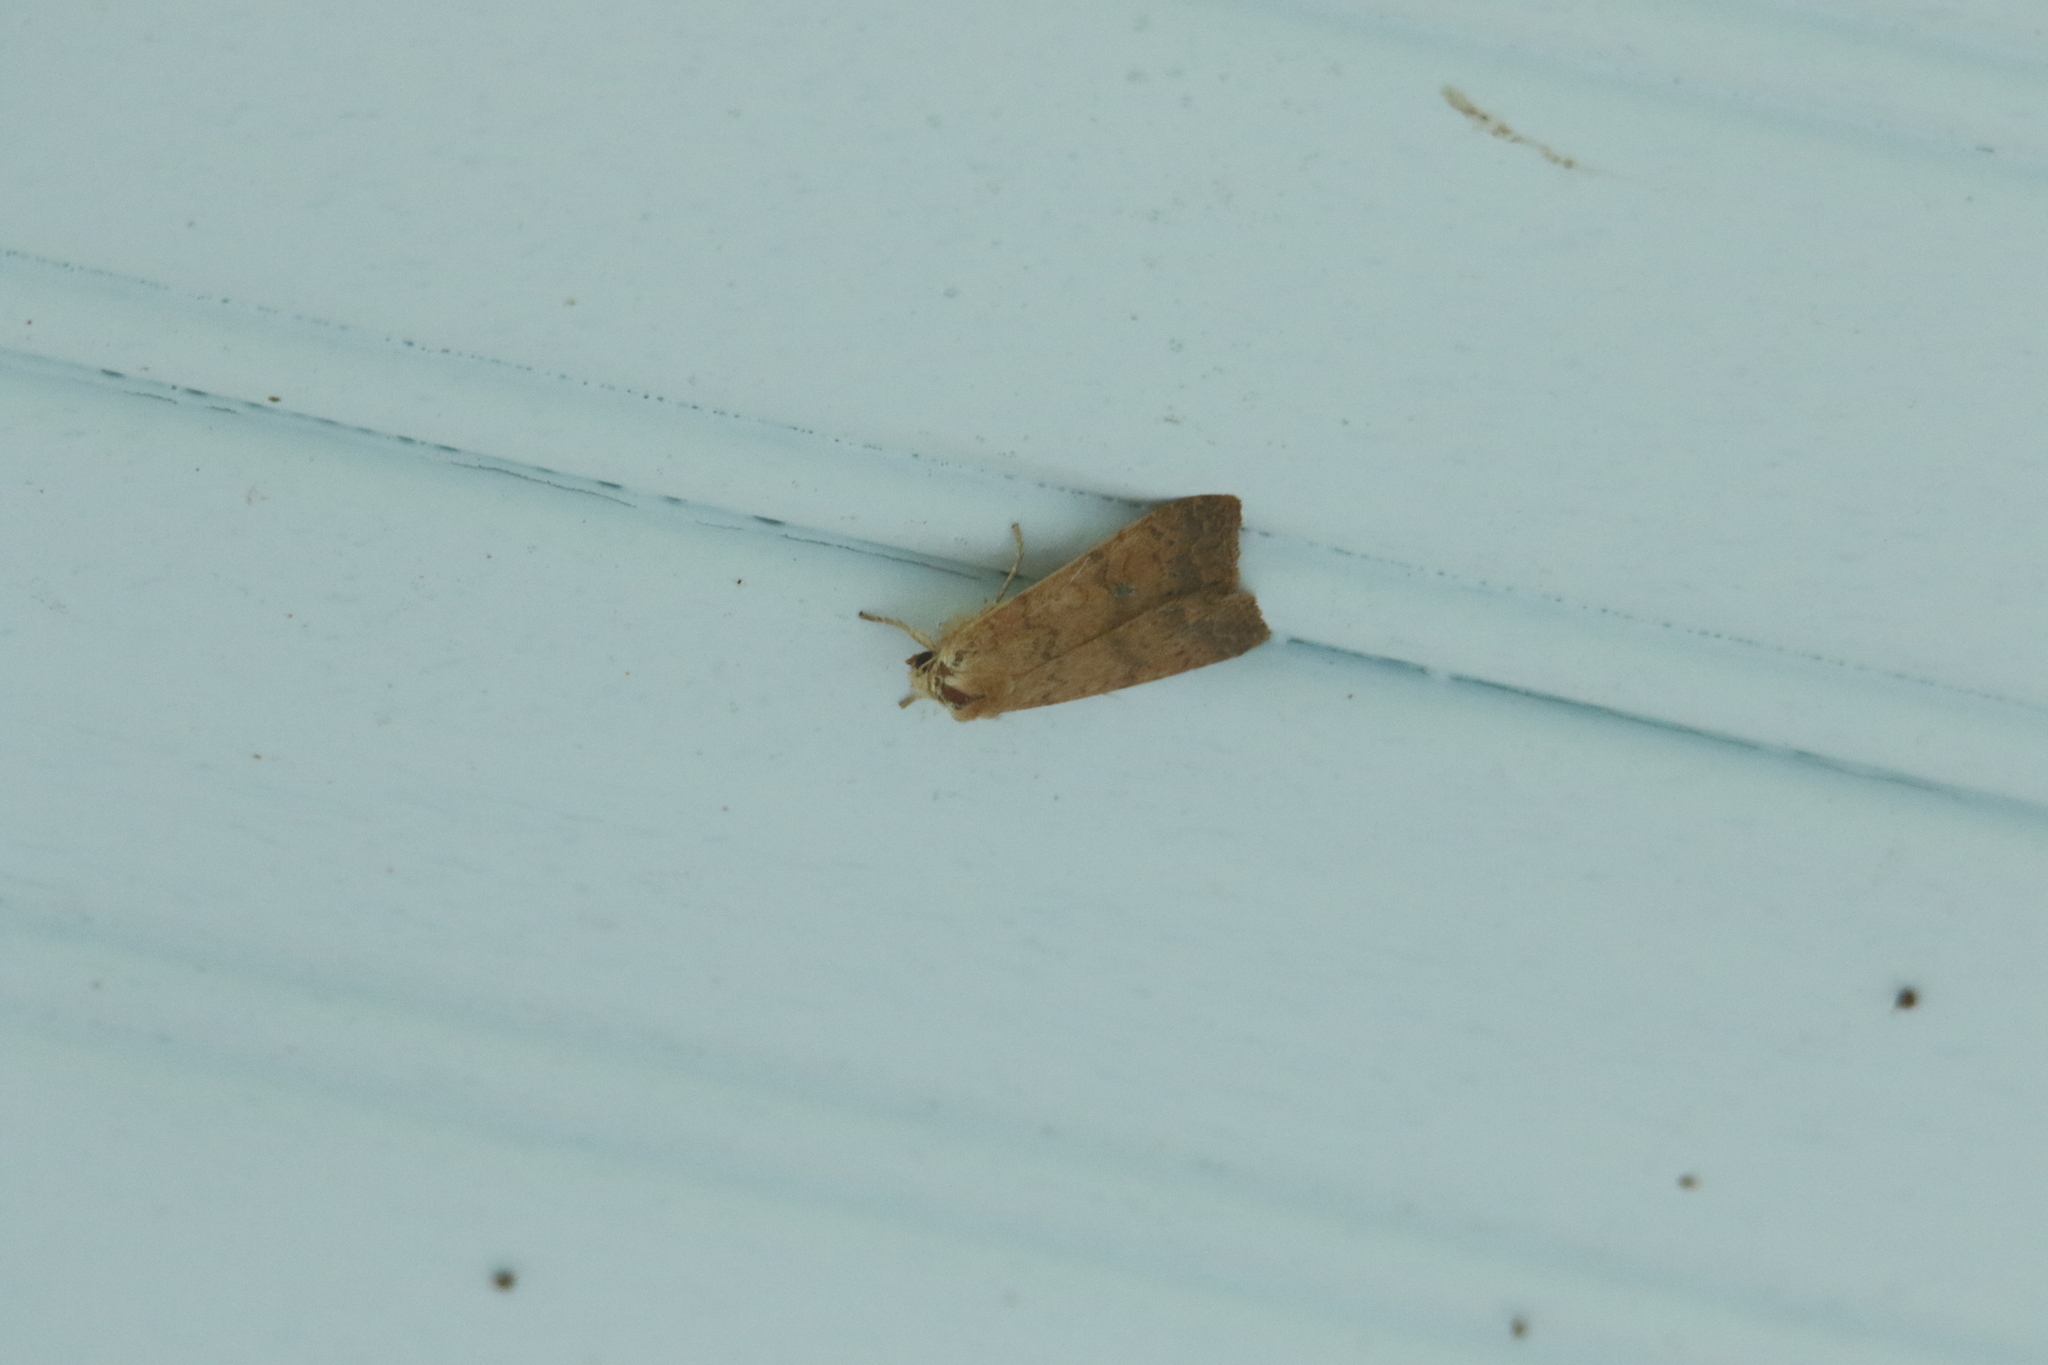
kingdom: Animalia
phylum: Arthropoda
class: Insecta
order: Lepidoptera
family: Noctuidae
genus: Agrochola
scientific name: Agrochola bicolorago
